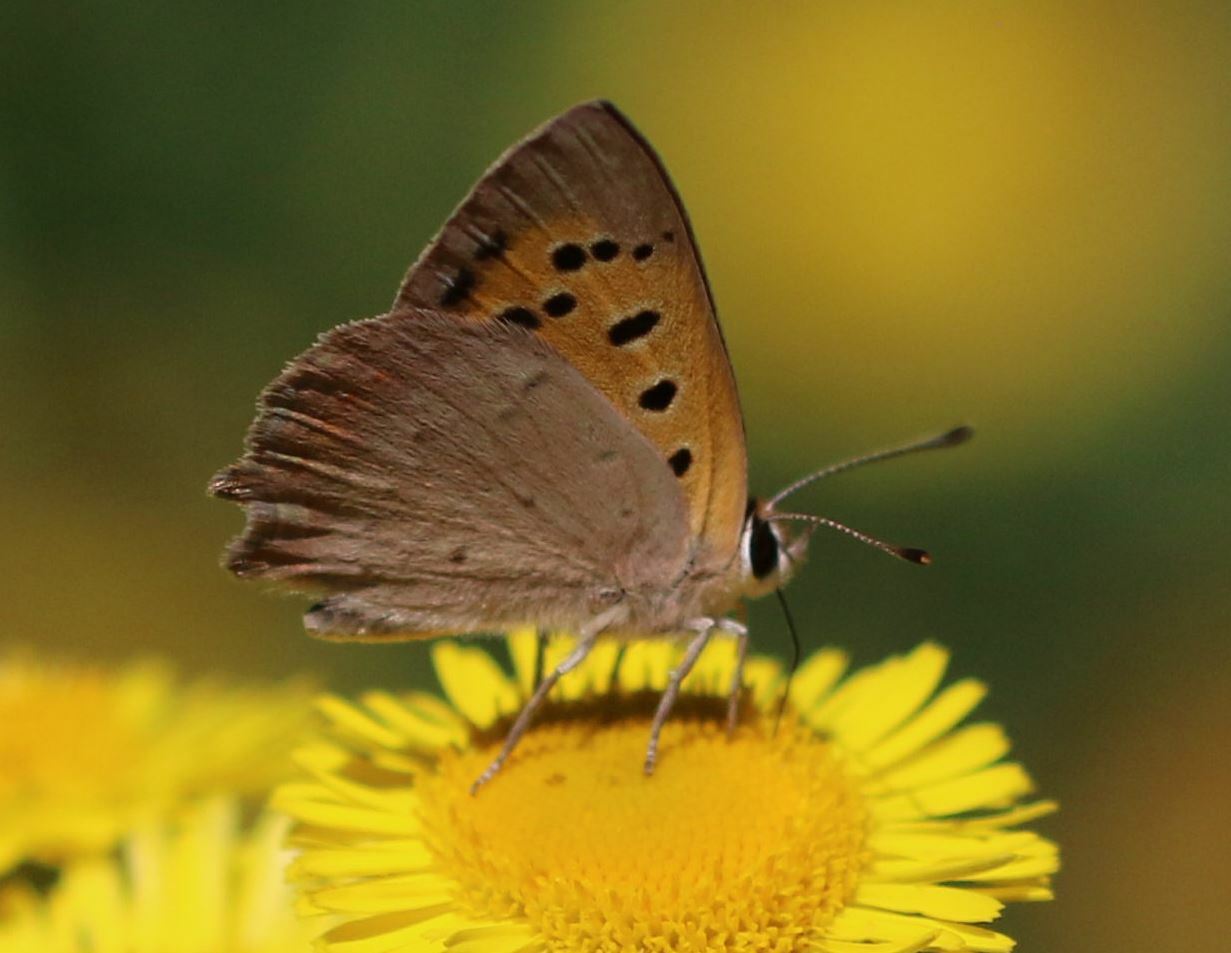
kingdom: Animalia
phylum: Arthropoda
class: Insecta
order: Lepidoptera
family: Lycaenidae
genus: Lycaena
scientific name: Lycaena phlaeas
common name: Small copper
